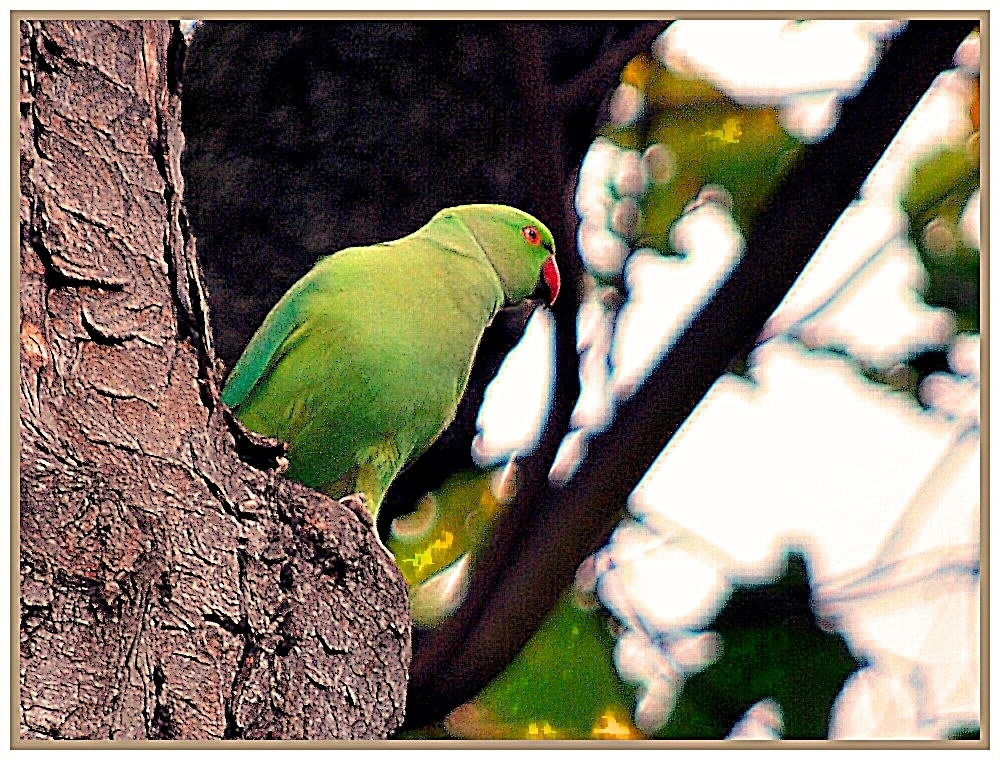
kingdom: Animalia
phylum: Chordata
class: Aves
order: Psittaciformes
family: Psittacidae
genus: Psittacula
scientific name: Psittacula krameri
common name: Rose-ringed parakeet
